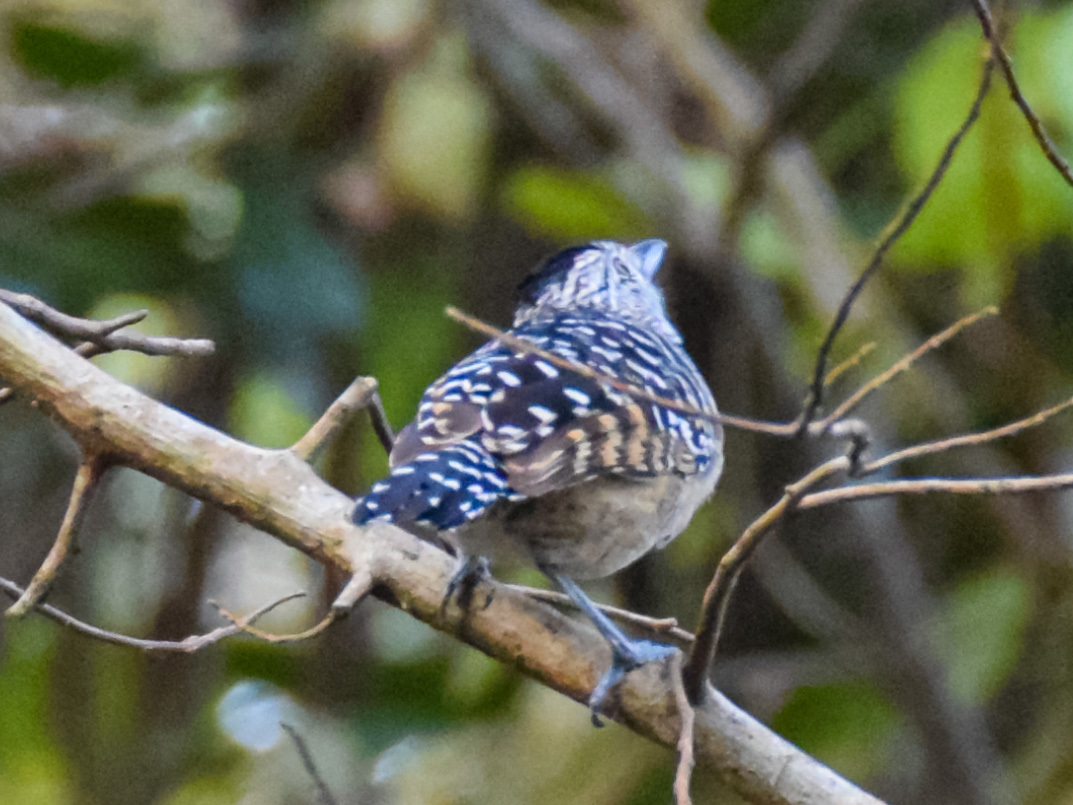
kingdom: Animalia
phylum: Chordata
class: Aves
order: Passeriformes
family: Thamnophilidae
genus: Thamnophilus
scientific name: Thamnophilus doliatus
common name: Barred antshrike
